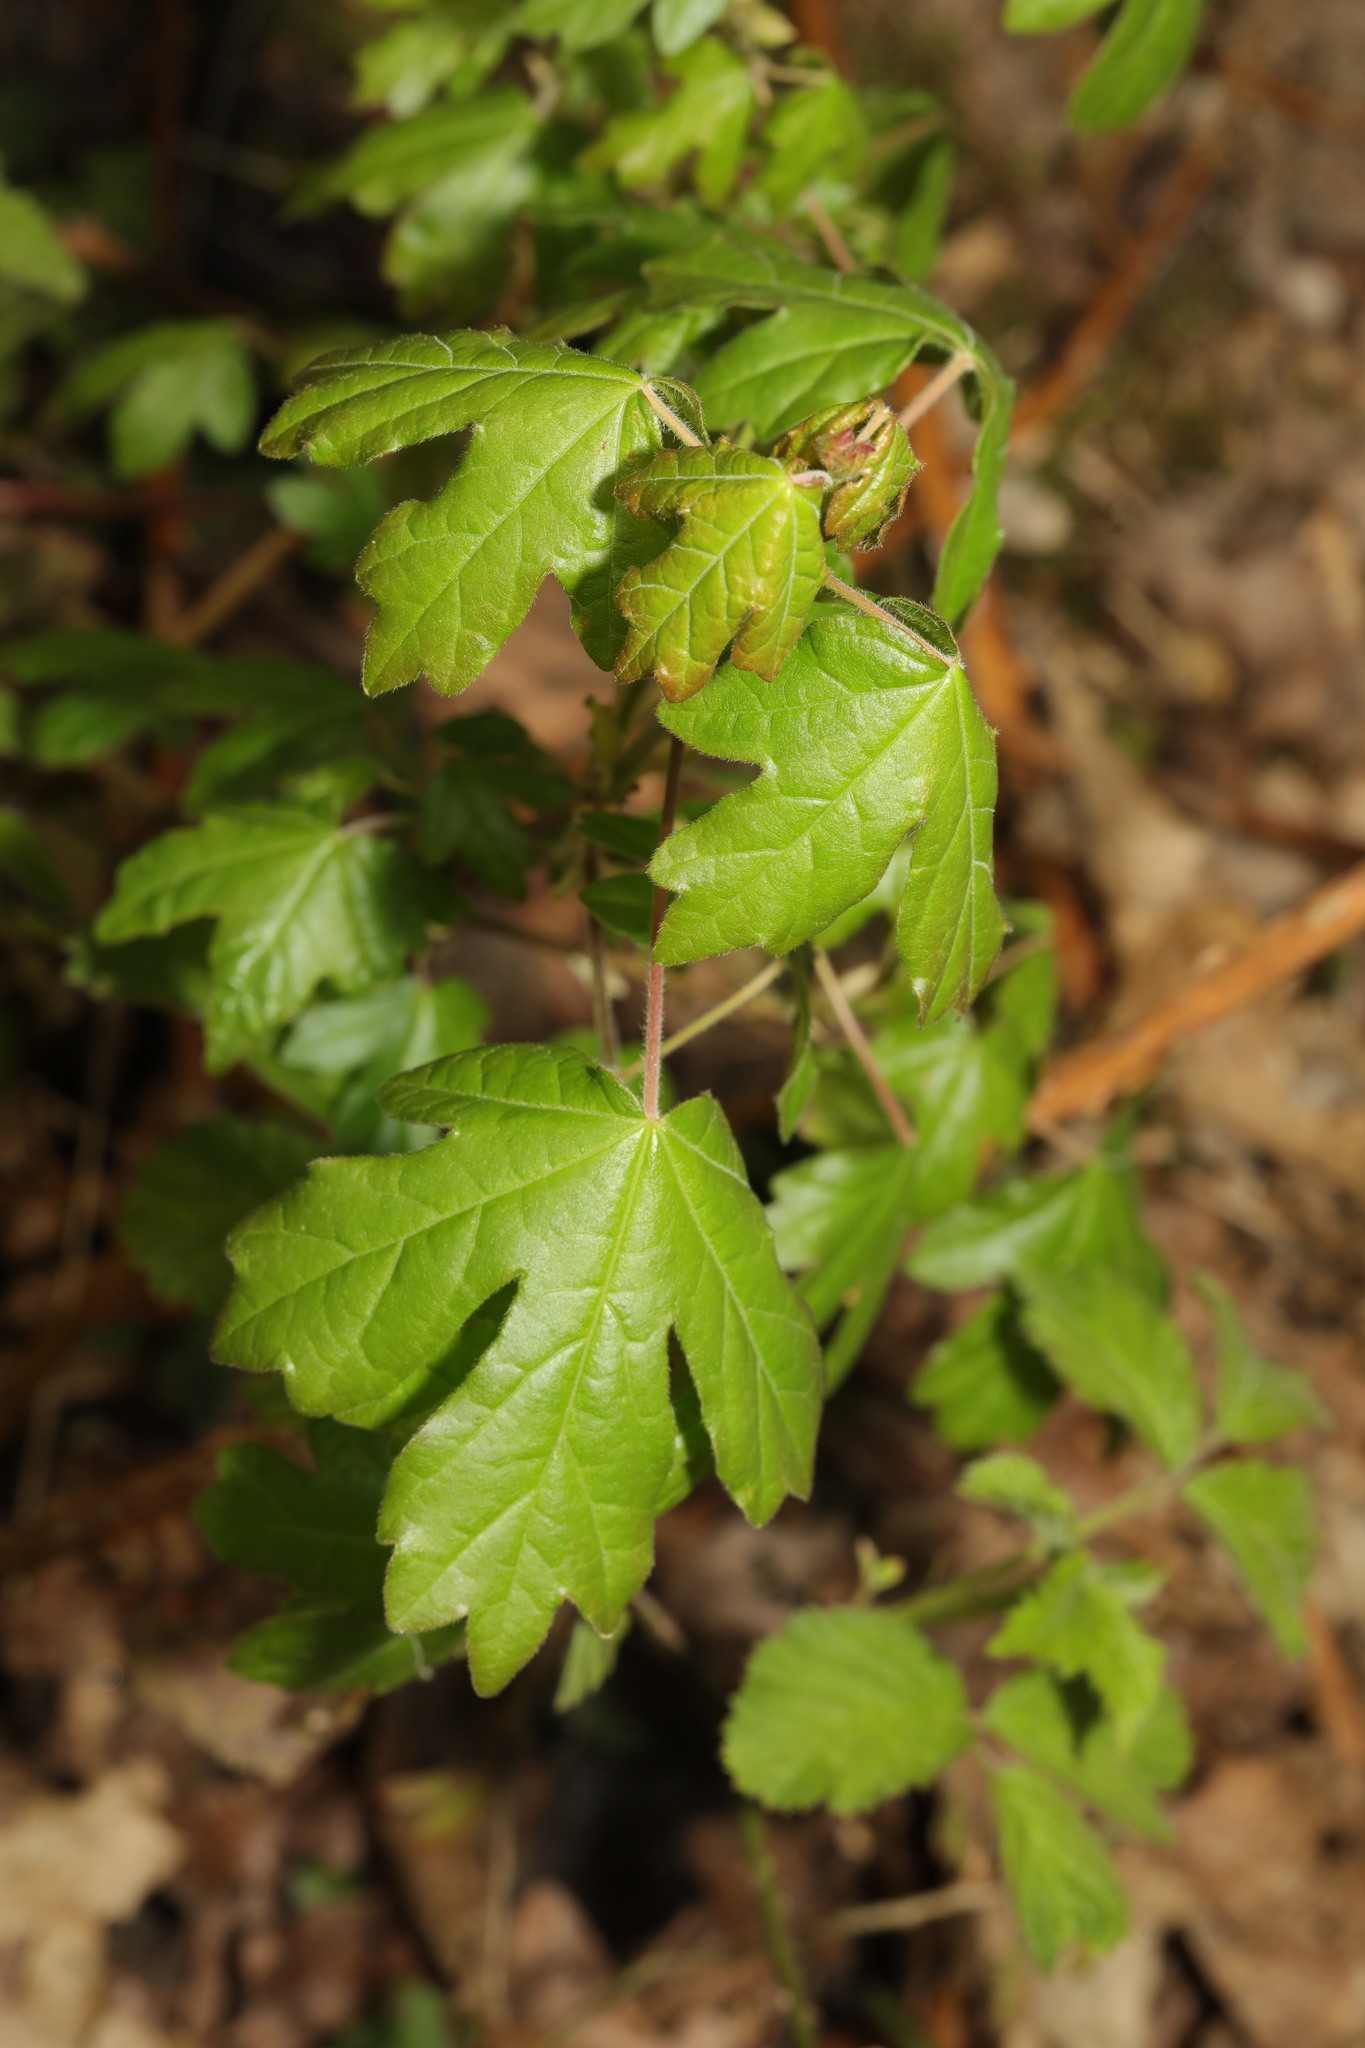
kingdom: Plantae
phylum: Tracheophyta
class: Magnoliopsida
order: Sapindales
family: Sapindaceae
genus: Acer
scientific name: Acer campestre
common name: Field maple
